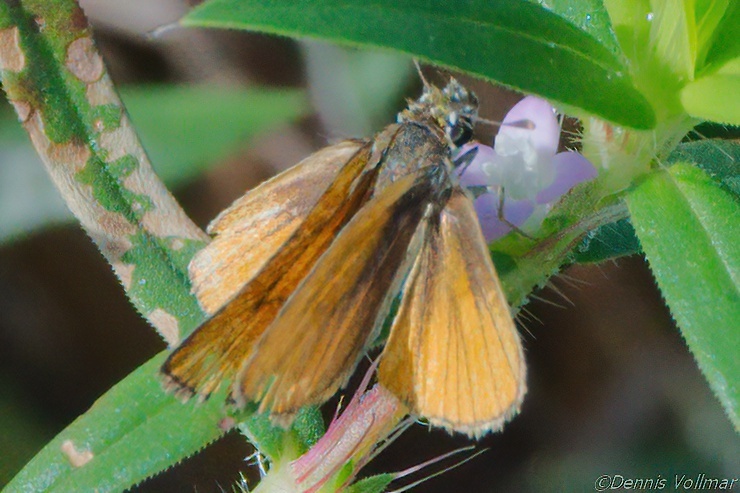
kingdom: Animalia
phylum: Arthropoda
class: Insecta
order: Lepidoptera
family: Hesperiidae
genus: Copaeodes
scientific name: Copaeodes minima
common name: Southern skipperling
